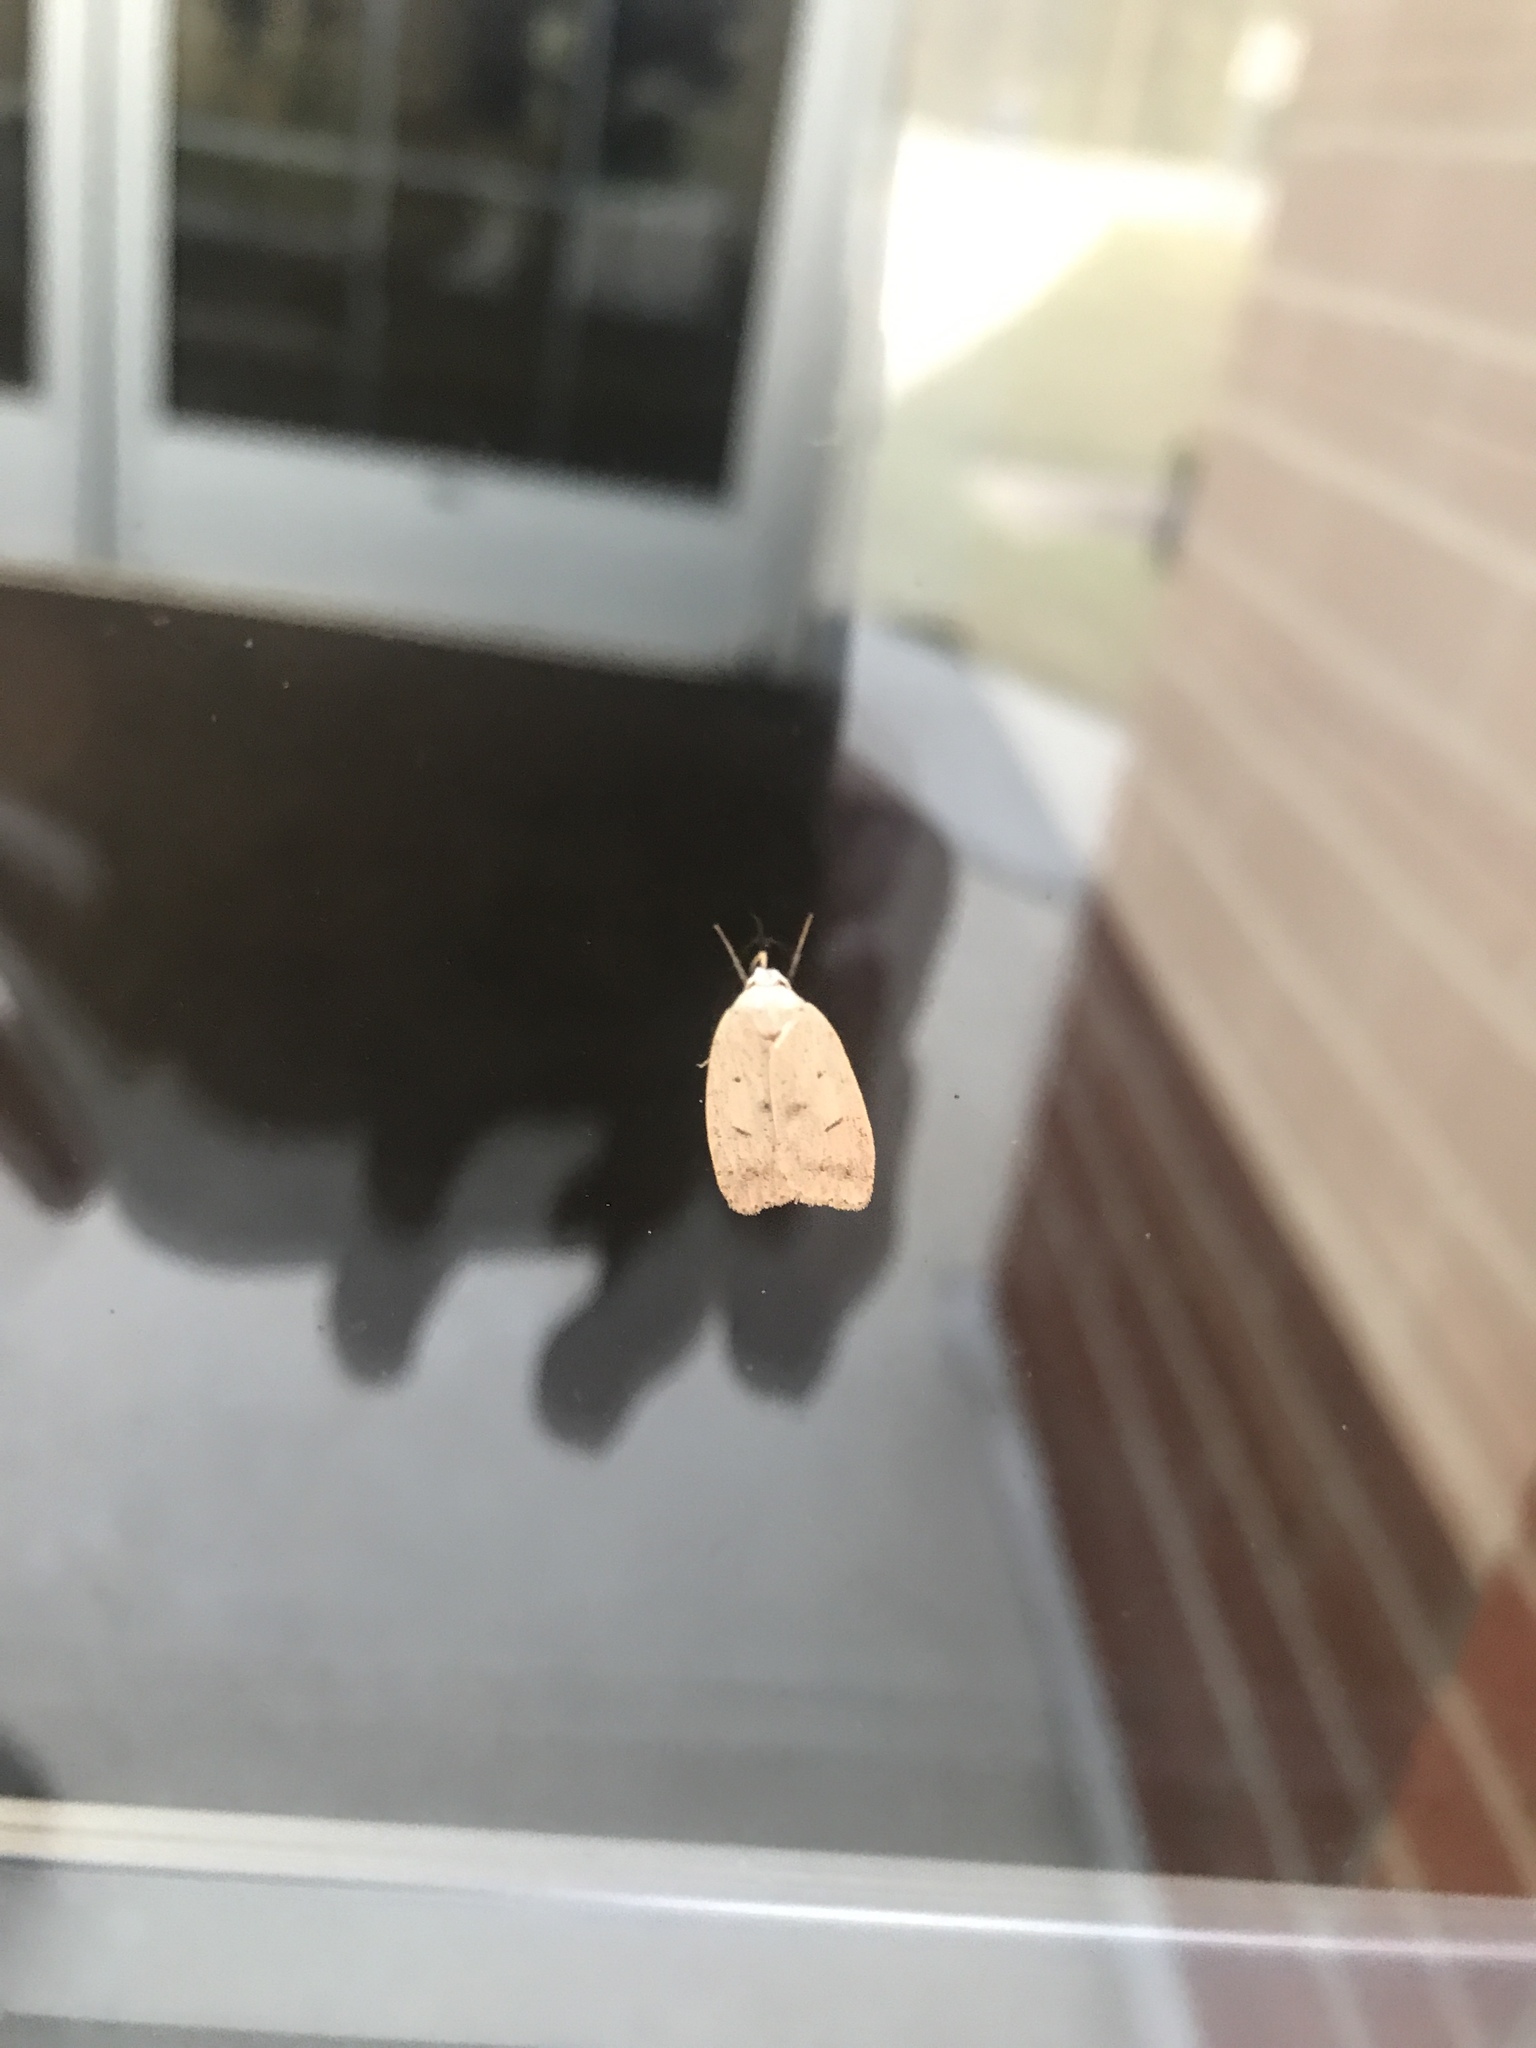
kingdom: Animalia
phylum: Arthropoda
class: Insecta
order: Lepidoptera
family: Peleopodidae
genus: Machimia
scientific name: Machimia tentoriferella
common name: Gold-striped leaftier moth
